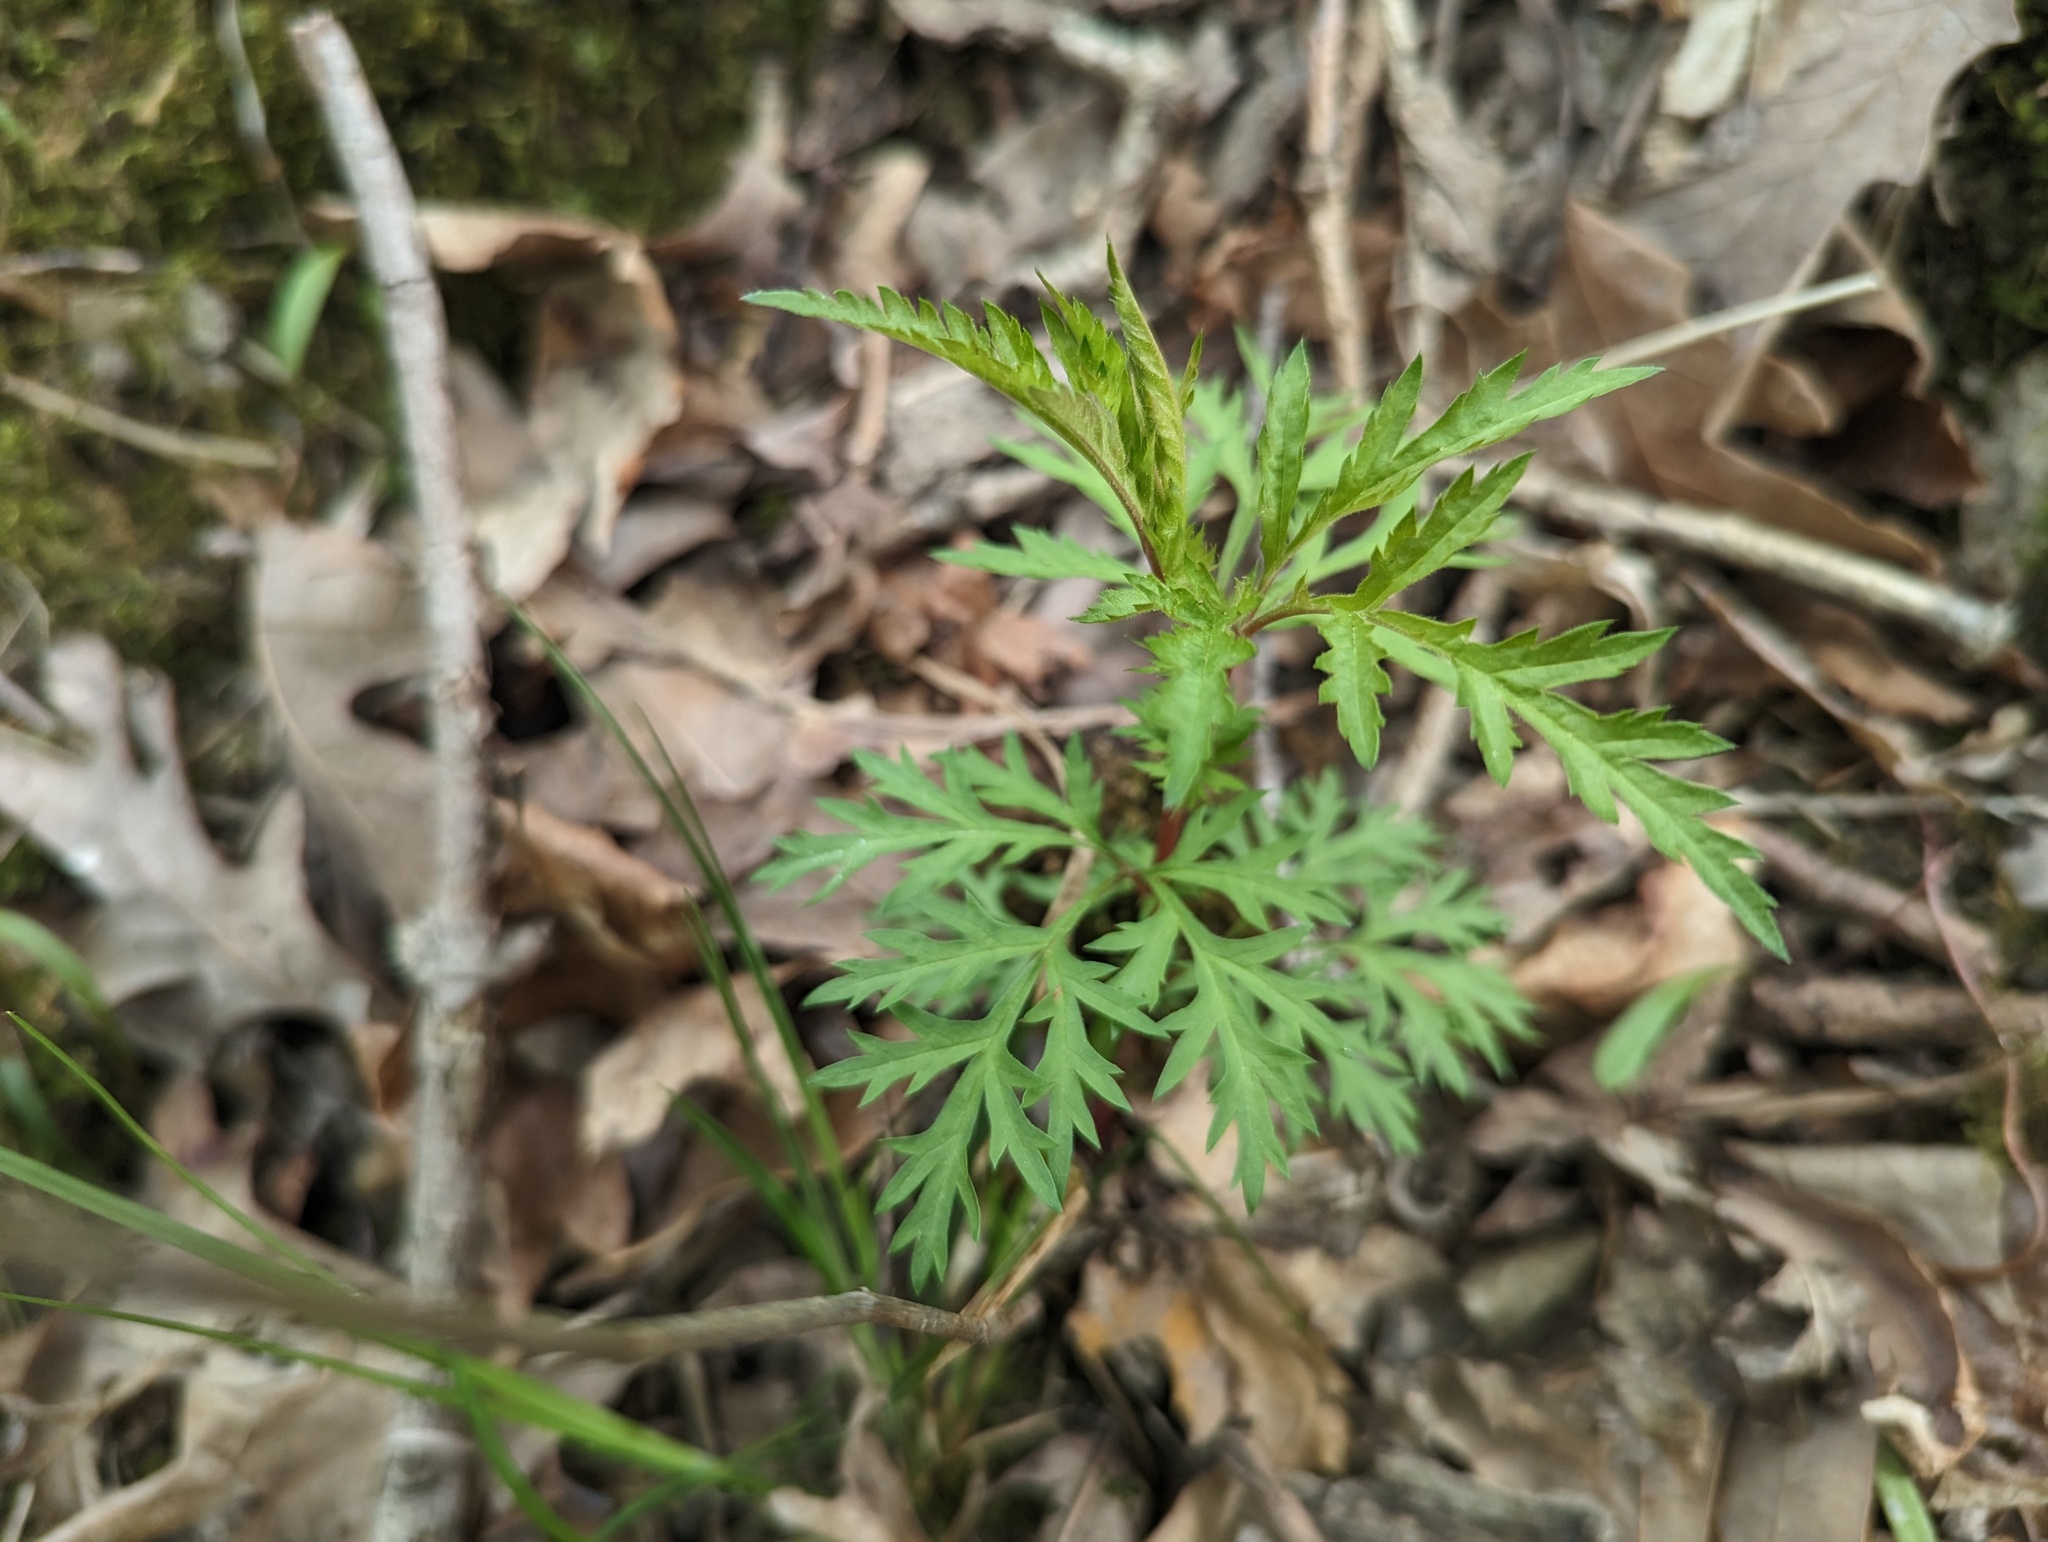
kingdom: Plantae
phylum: Tracheophyta
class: Magnoliopsida
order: Rosales
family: Rosaceae
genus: Gillenia
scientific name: Gillenia stipulata
